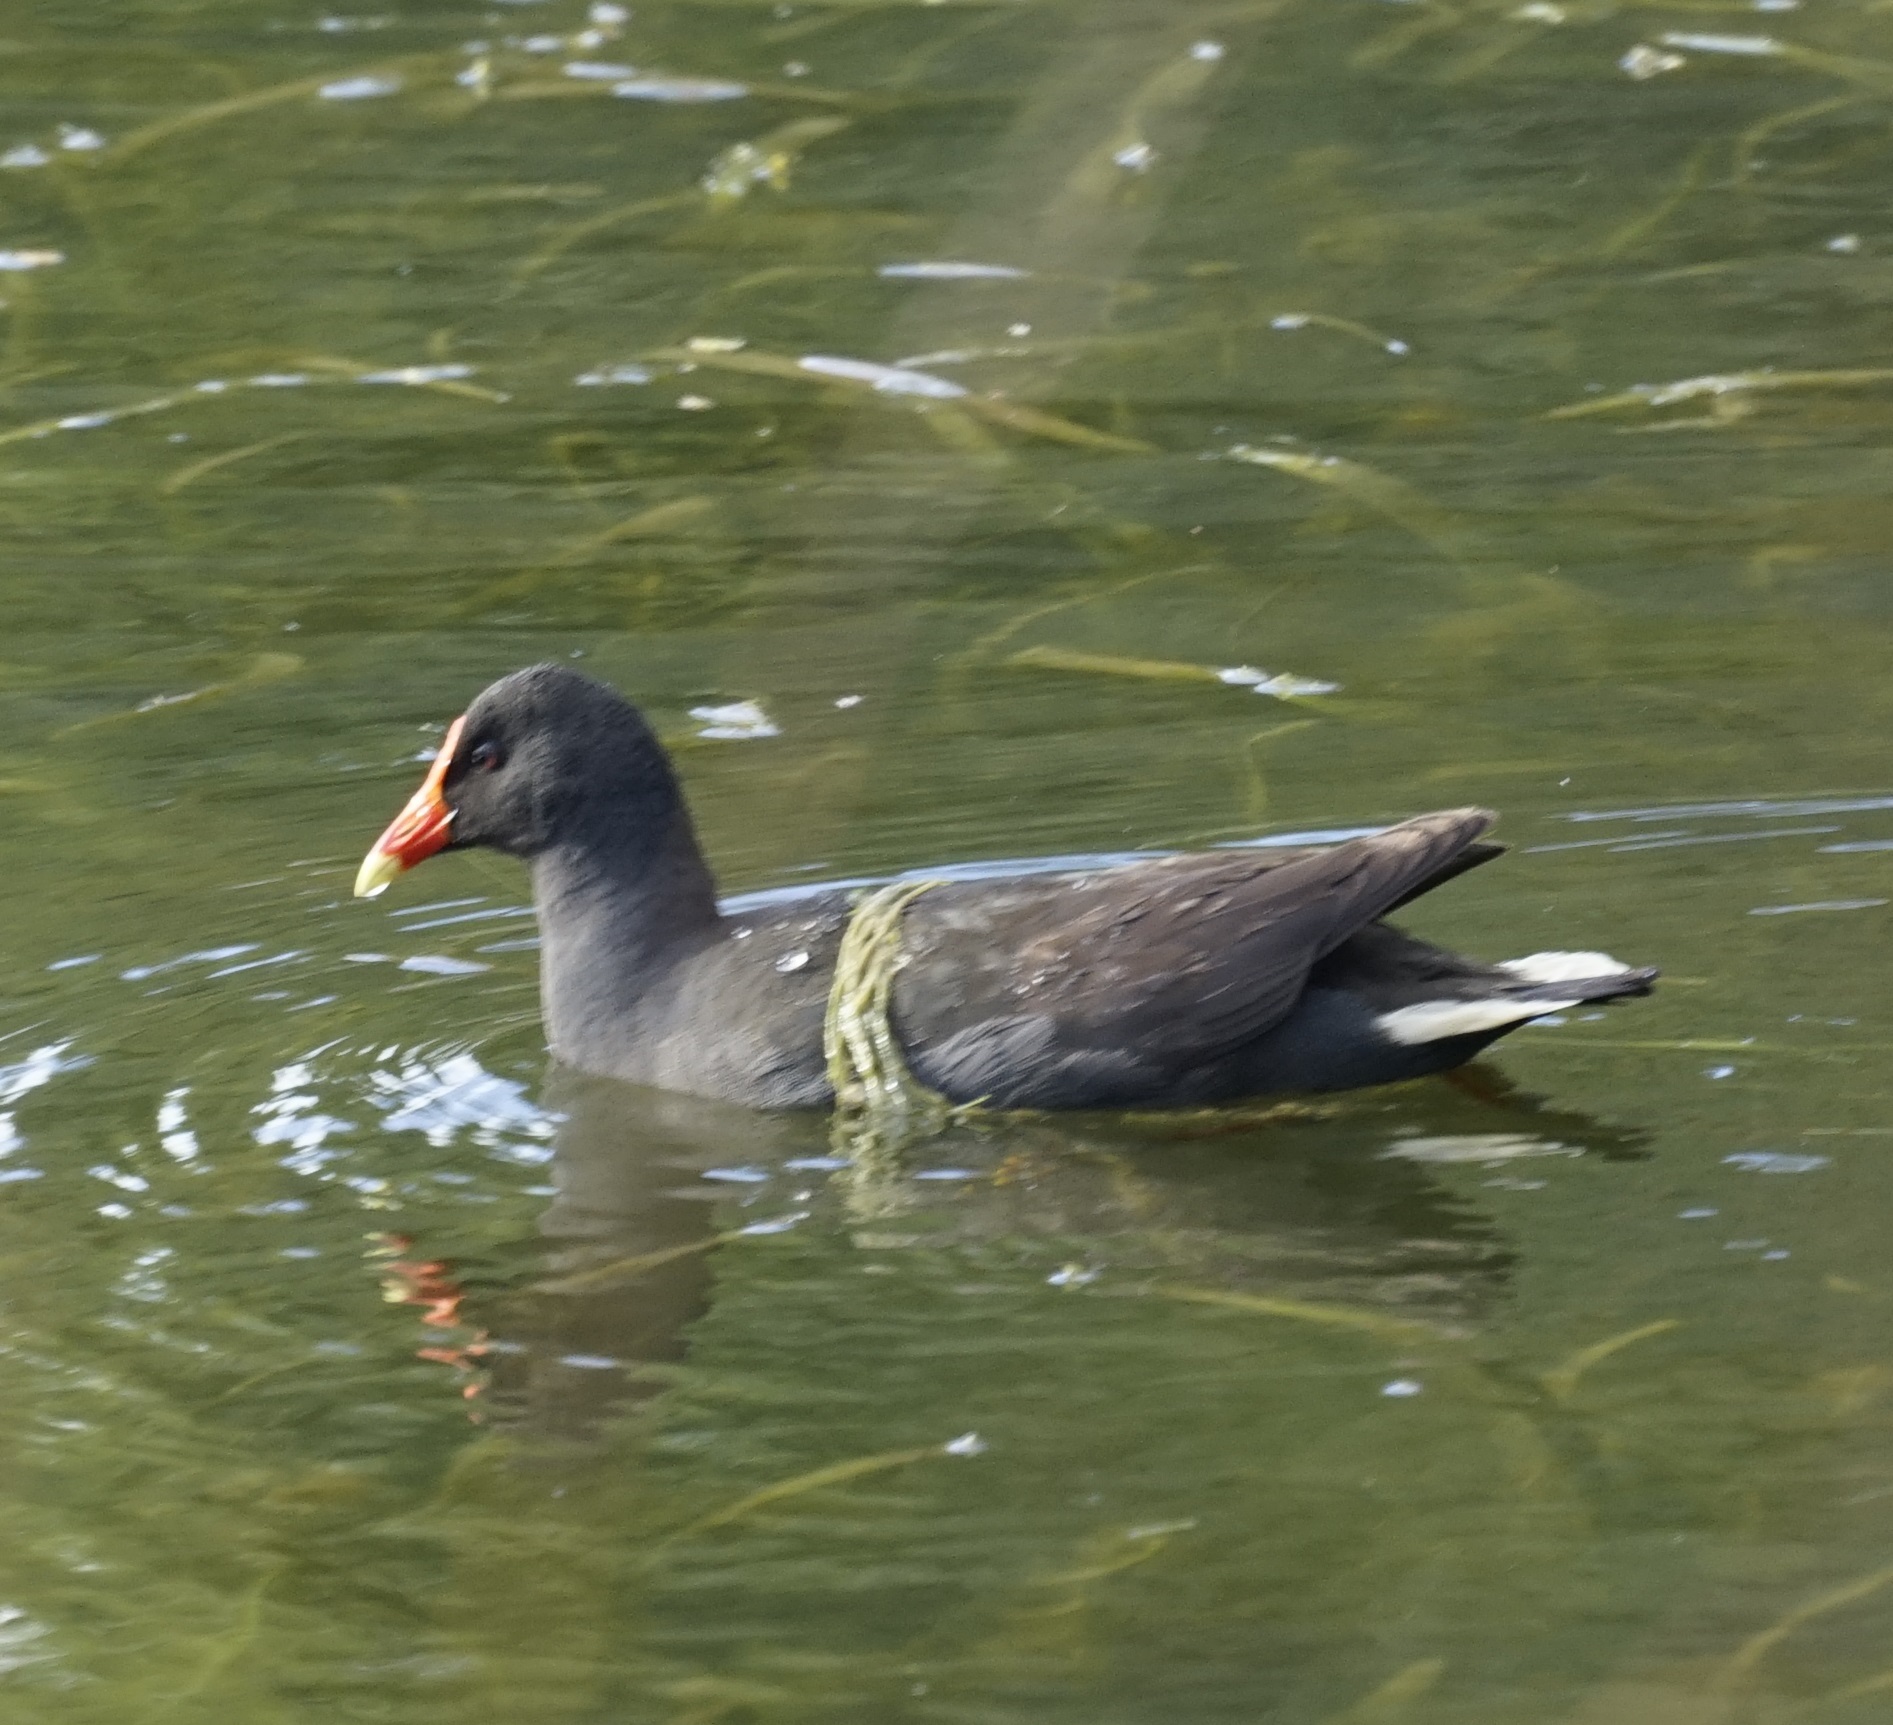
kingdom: Animalia
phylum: Chordata
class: Aves
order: Gruiformes
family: Rallidae
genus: Gallinula
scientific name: Gallinula tenebrosa
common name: Dusky moorhen
